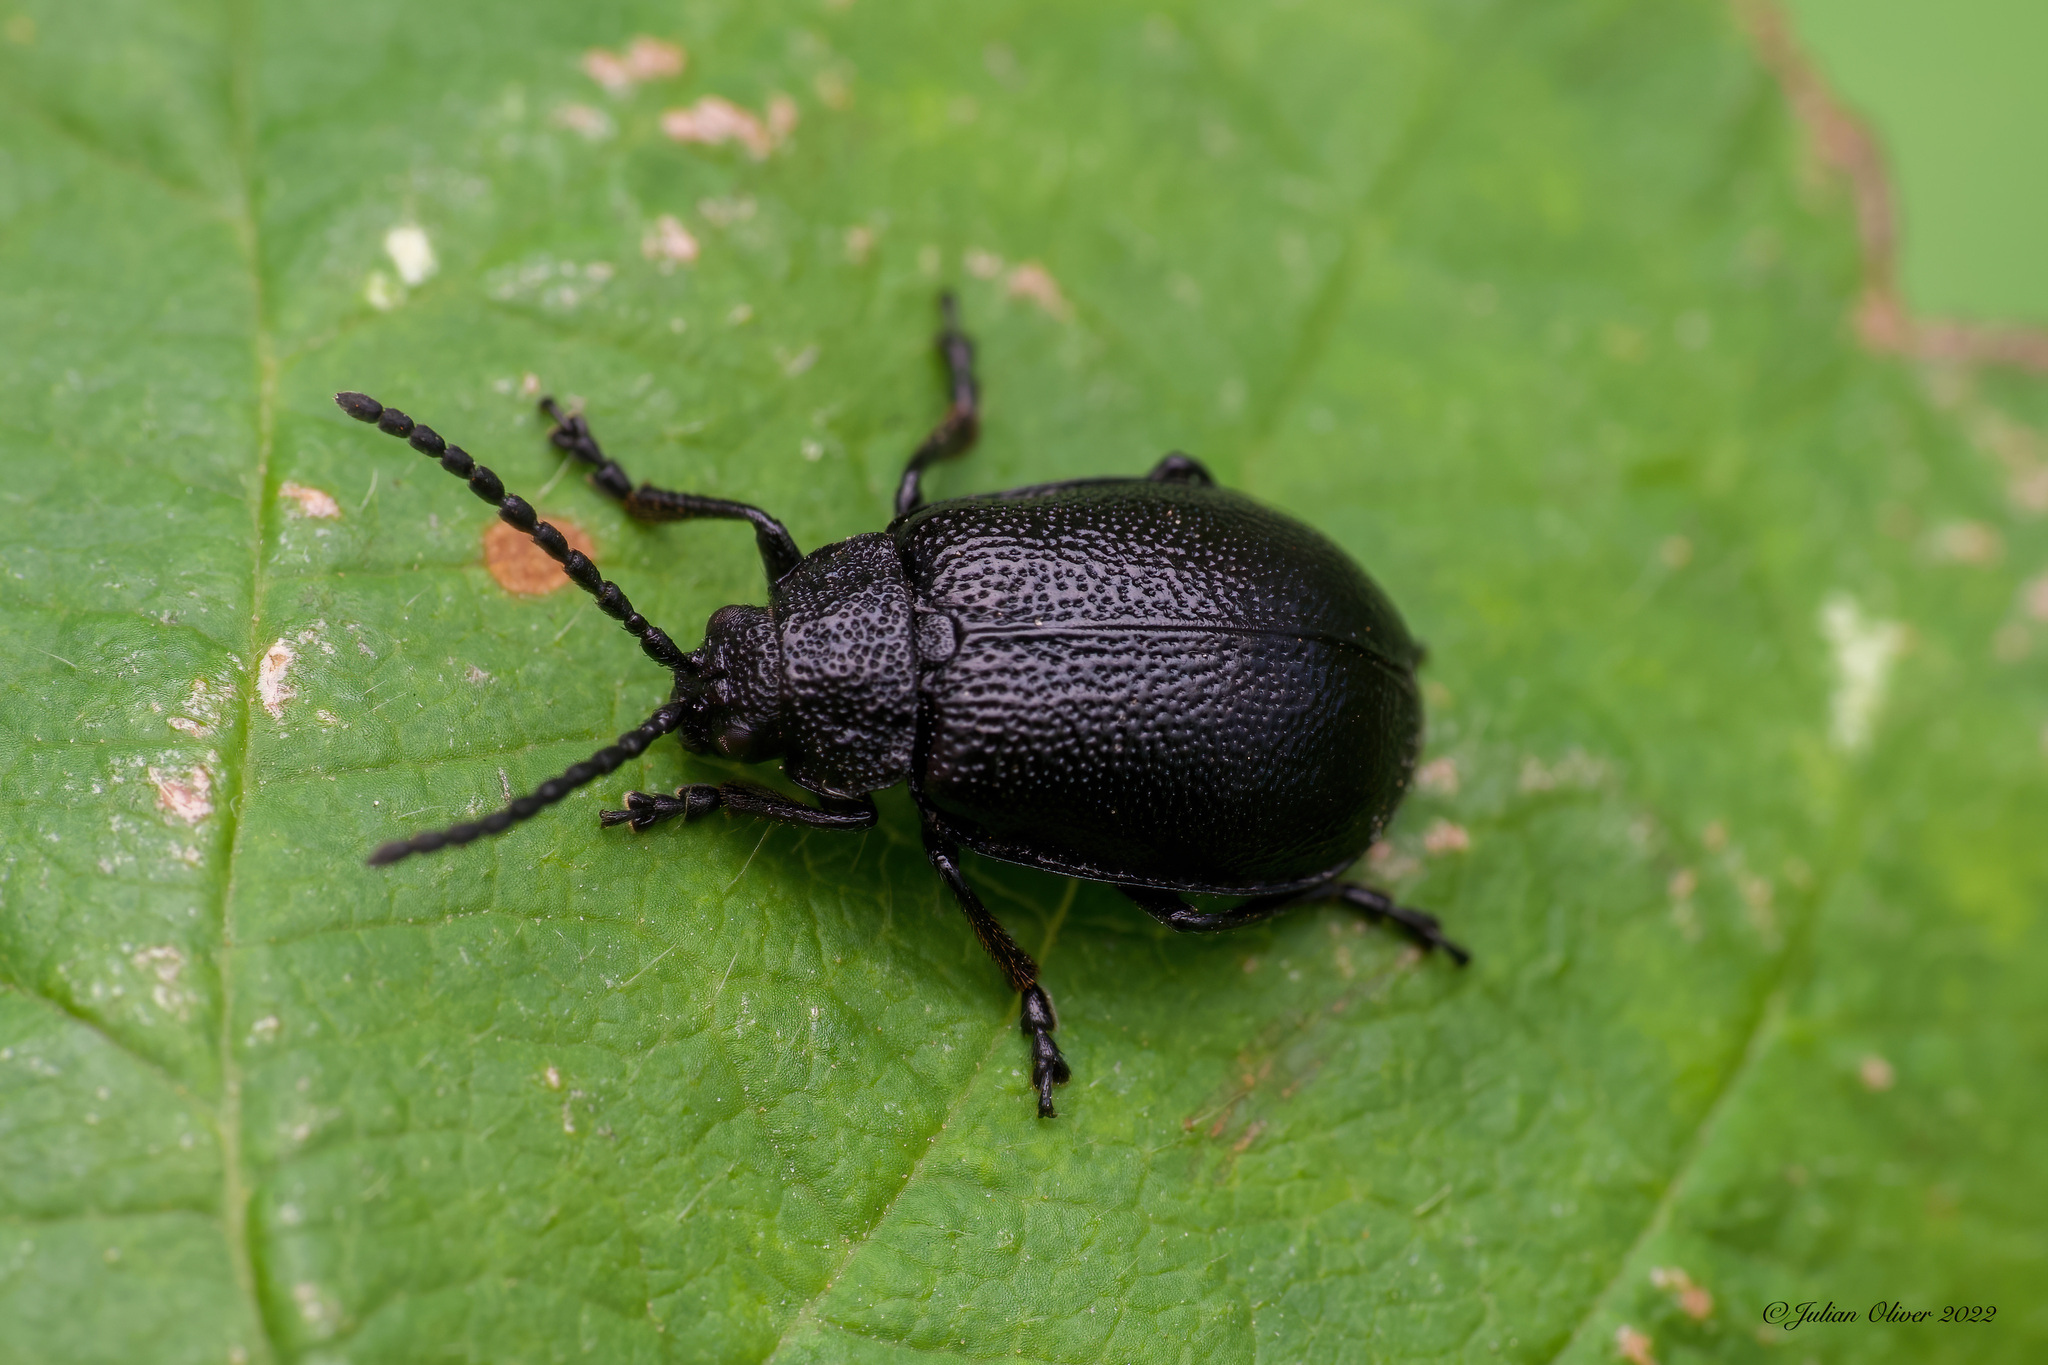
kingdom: Animalia
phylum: Arthropoda
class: Insecta
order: Coleoptera
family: Chrysomelidae
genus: Galeruca
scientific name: Galeruca tanaceti
